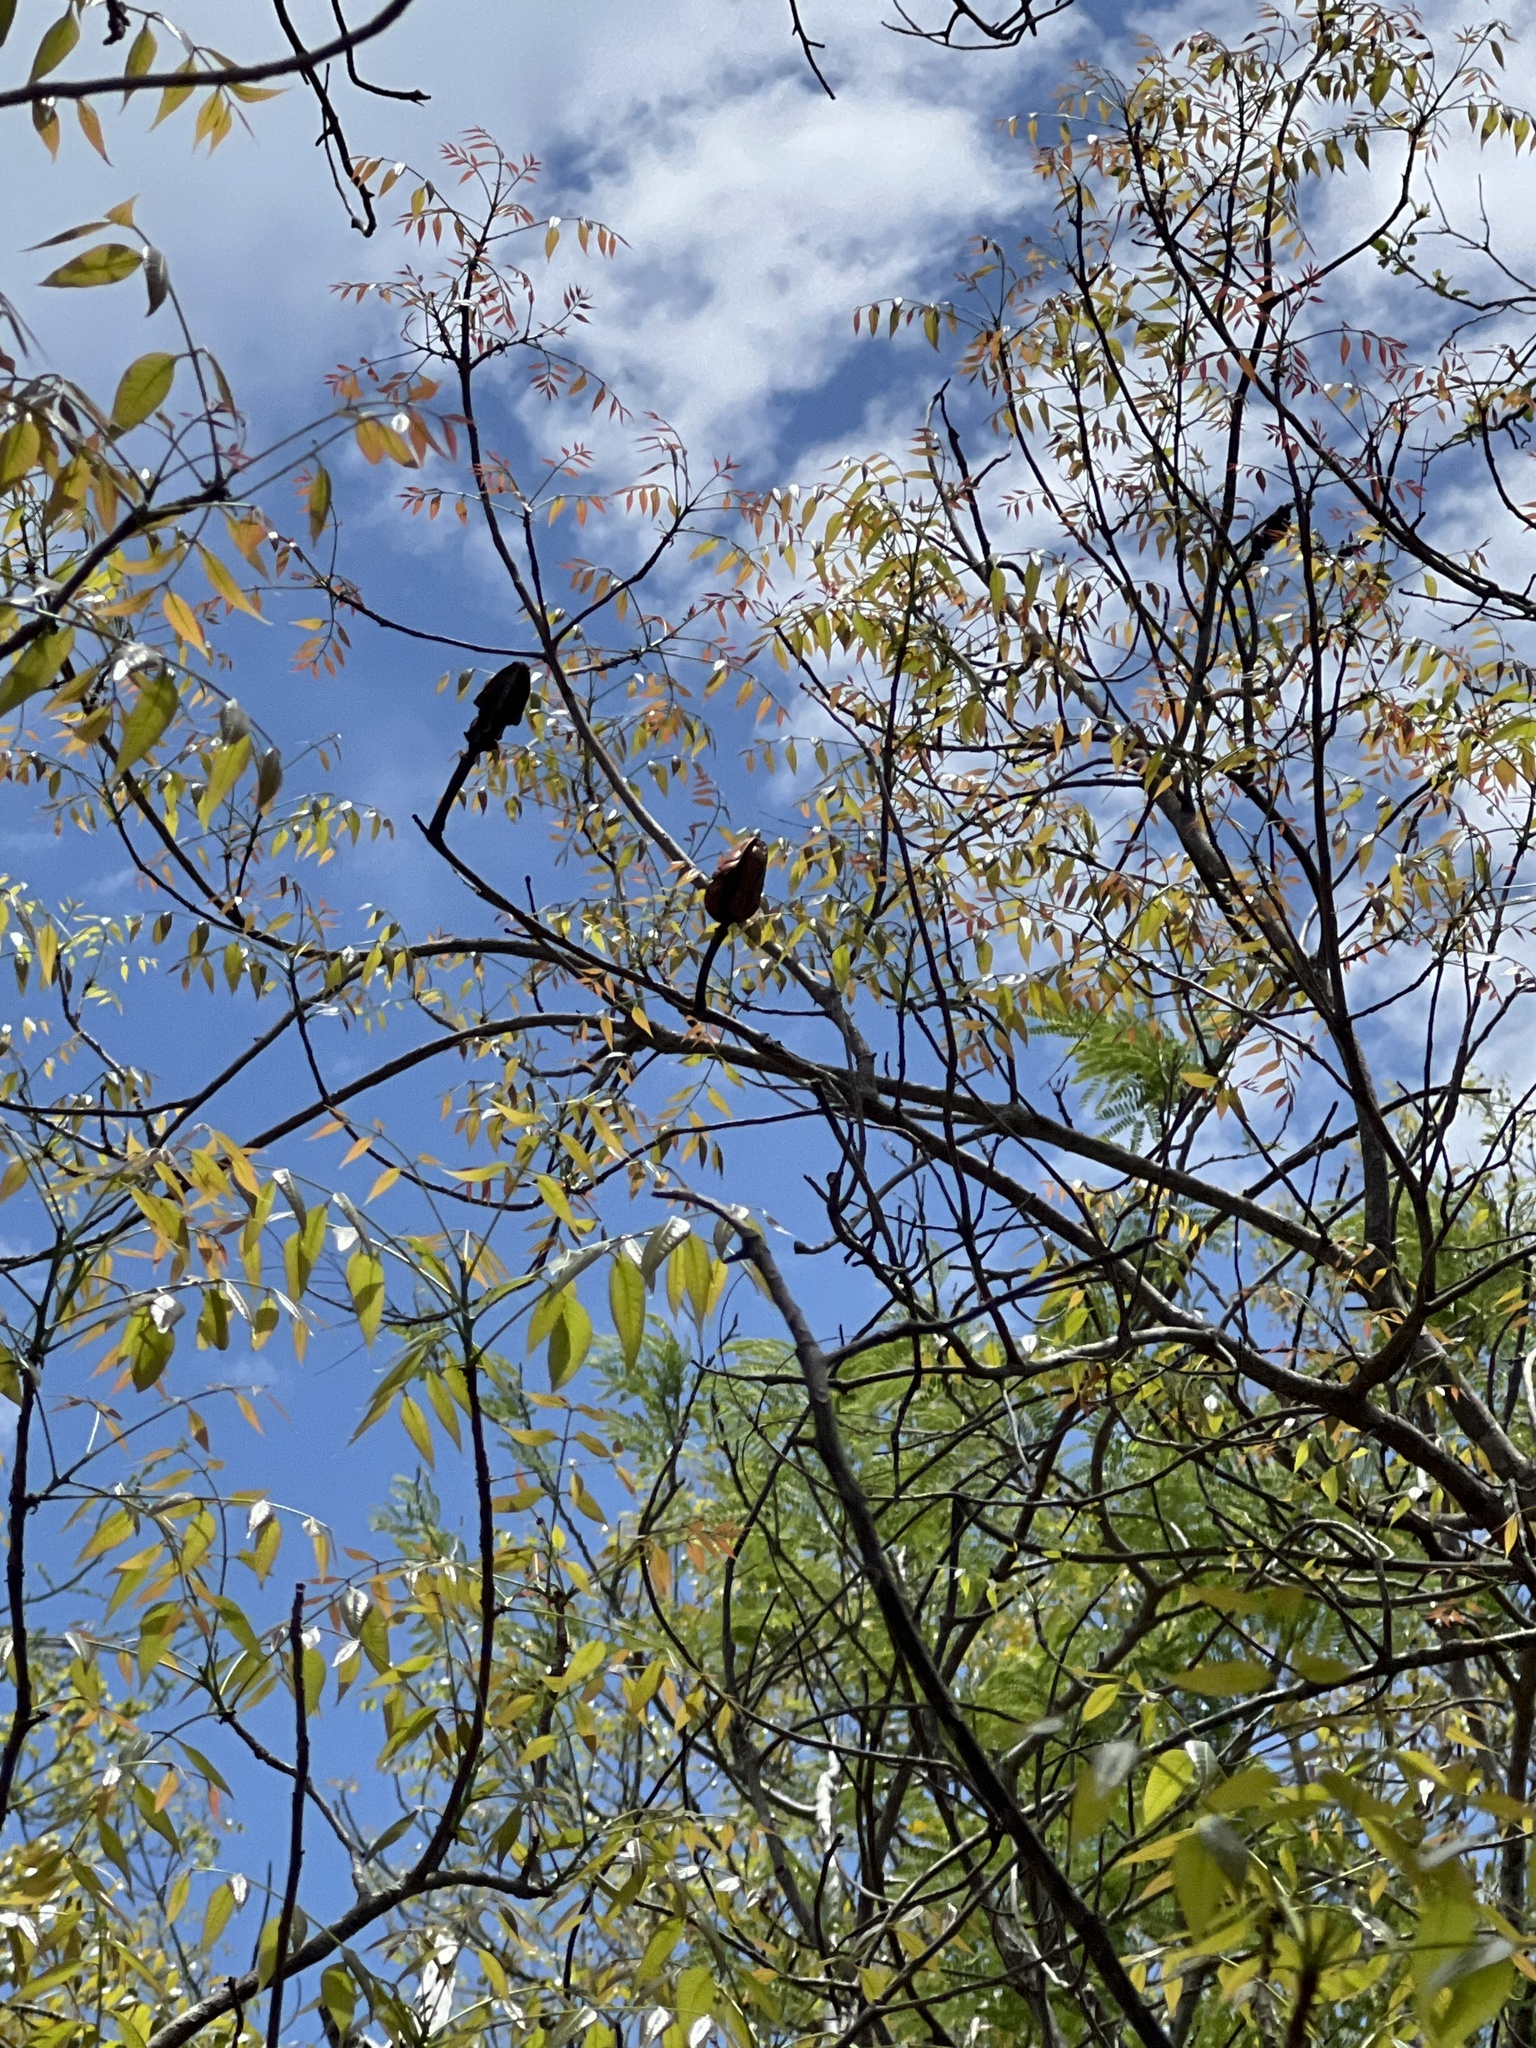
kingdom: Plantae
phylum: Tracheophyta
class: Magnoliopsida
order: Sapindales
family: Meliaceae
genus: Swietenia
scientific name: Swietenia mahagoni
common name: West indian mahogany
